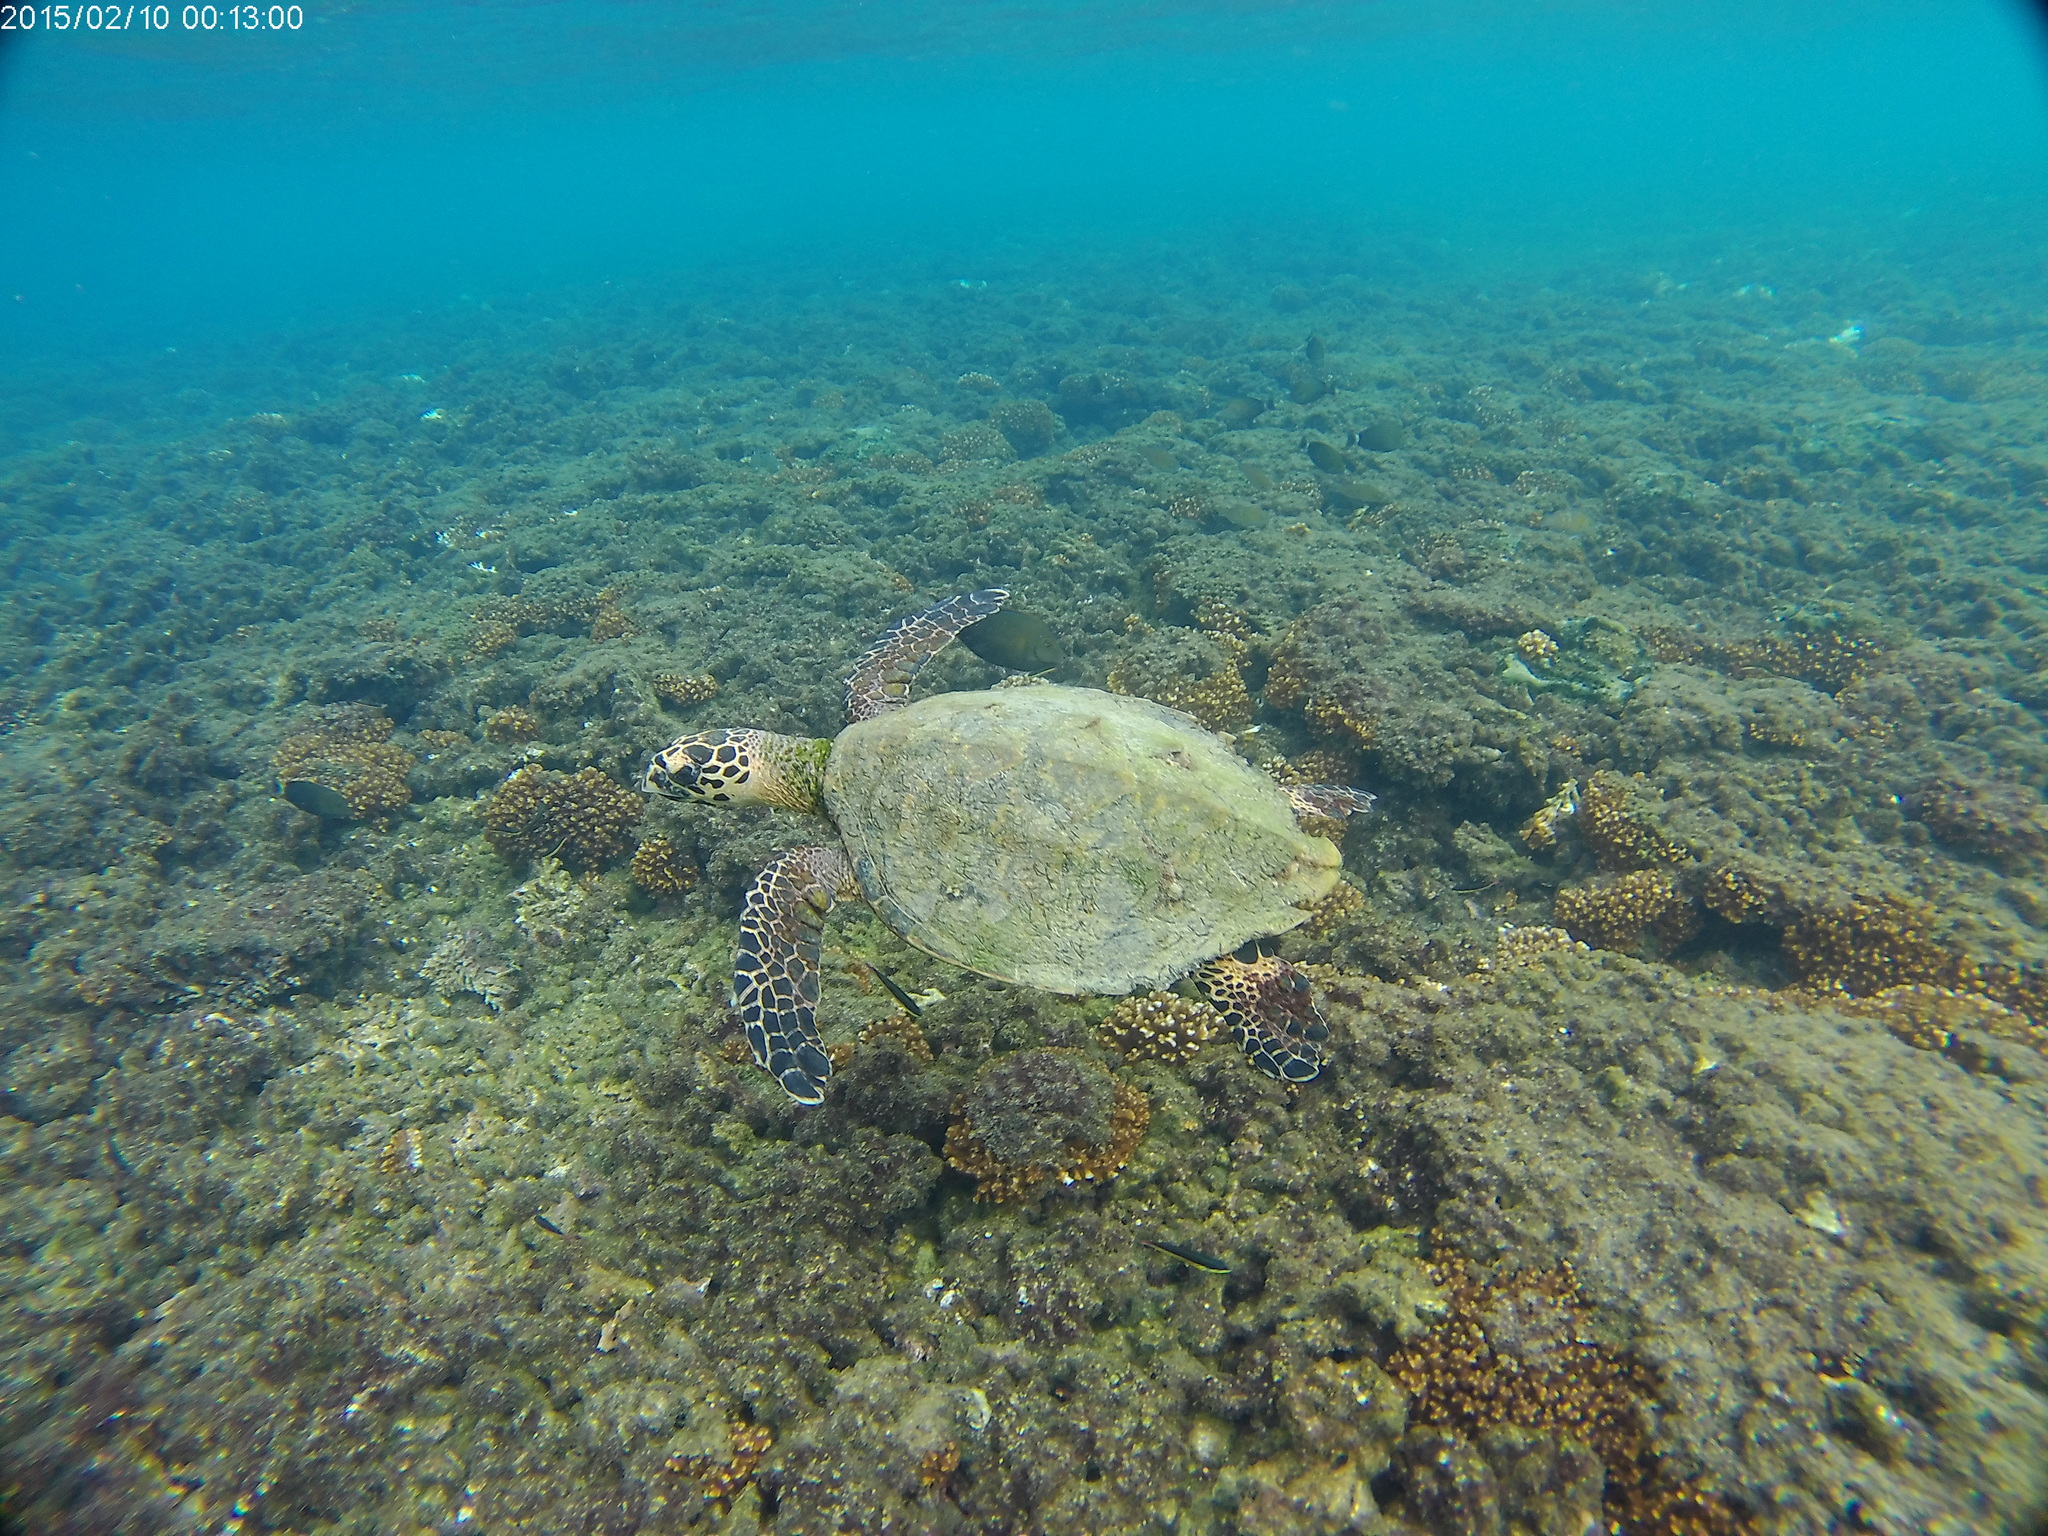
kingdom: Animalia
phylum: Chordata
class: Testudines
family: Cheloniidae
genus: Eretmochelys
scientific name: Eretmochelys imbricata
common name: Hawksbill turtle
